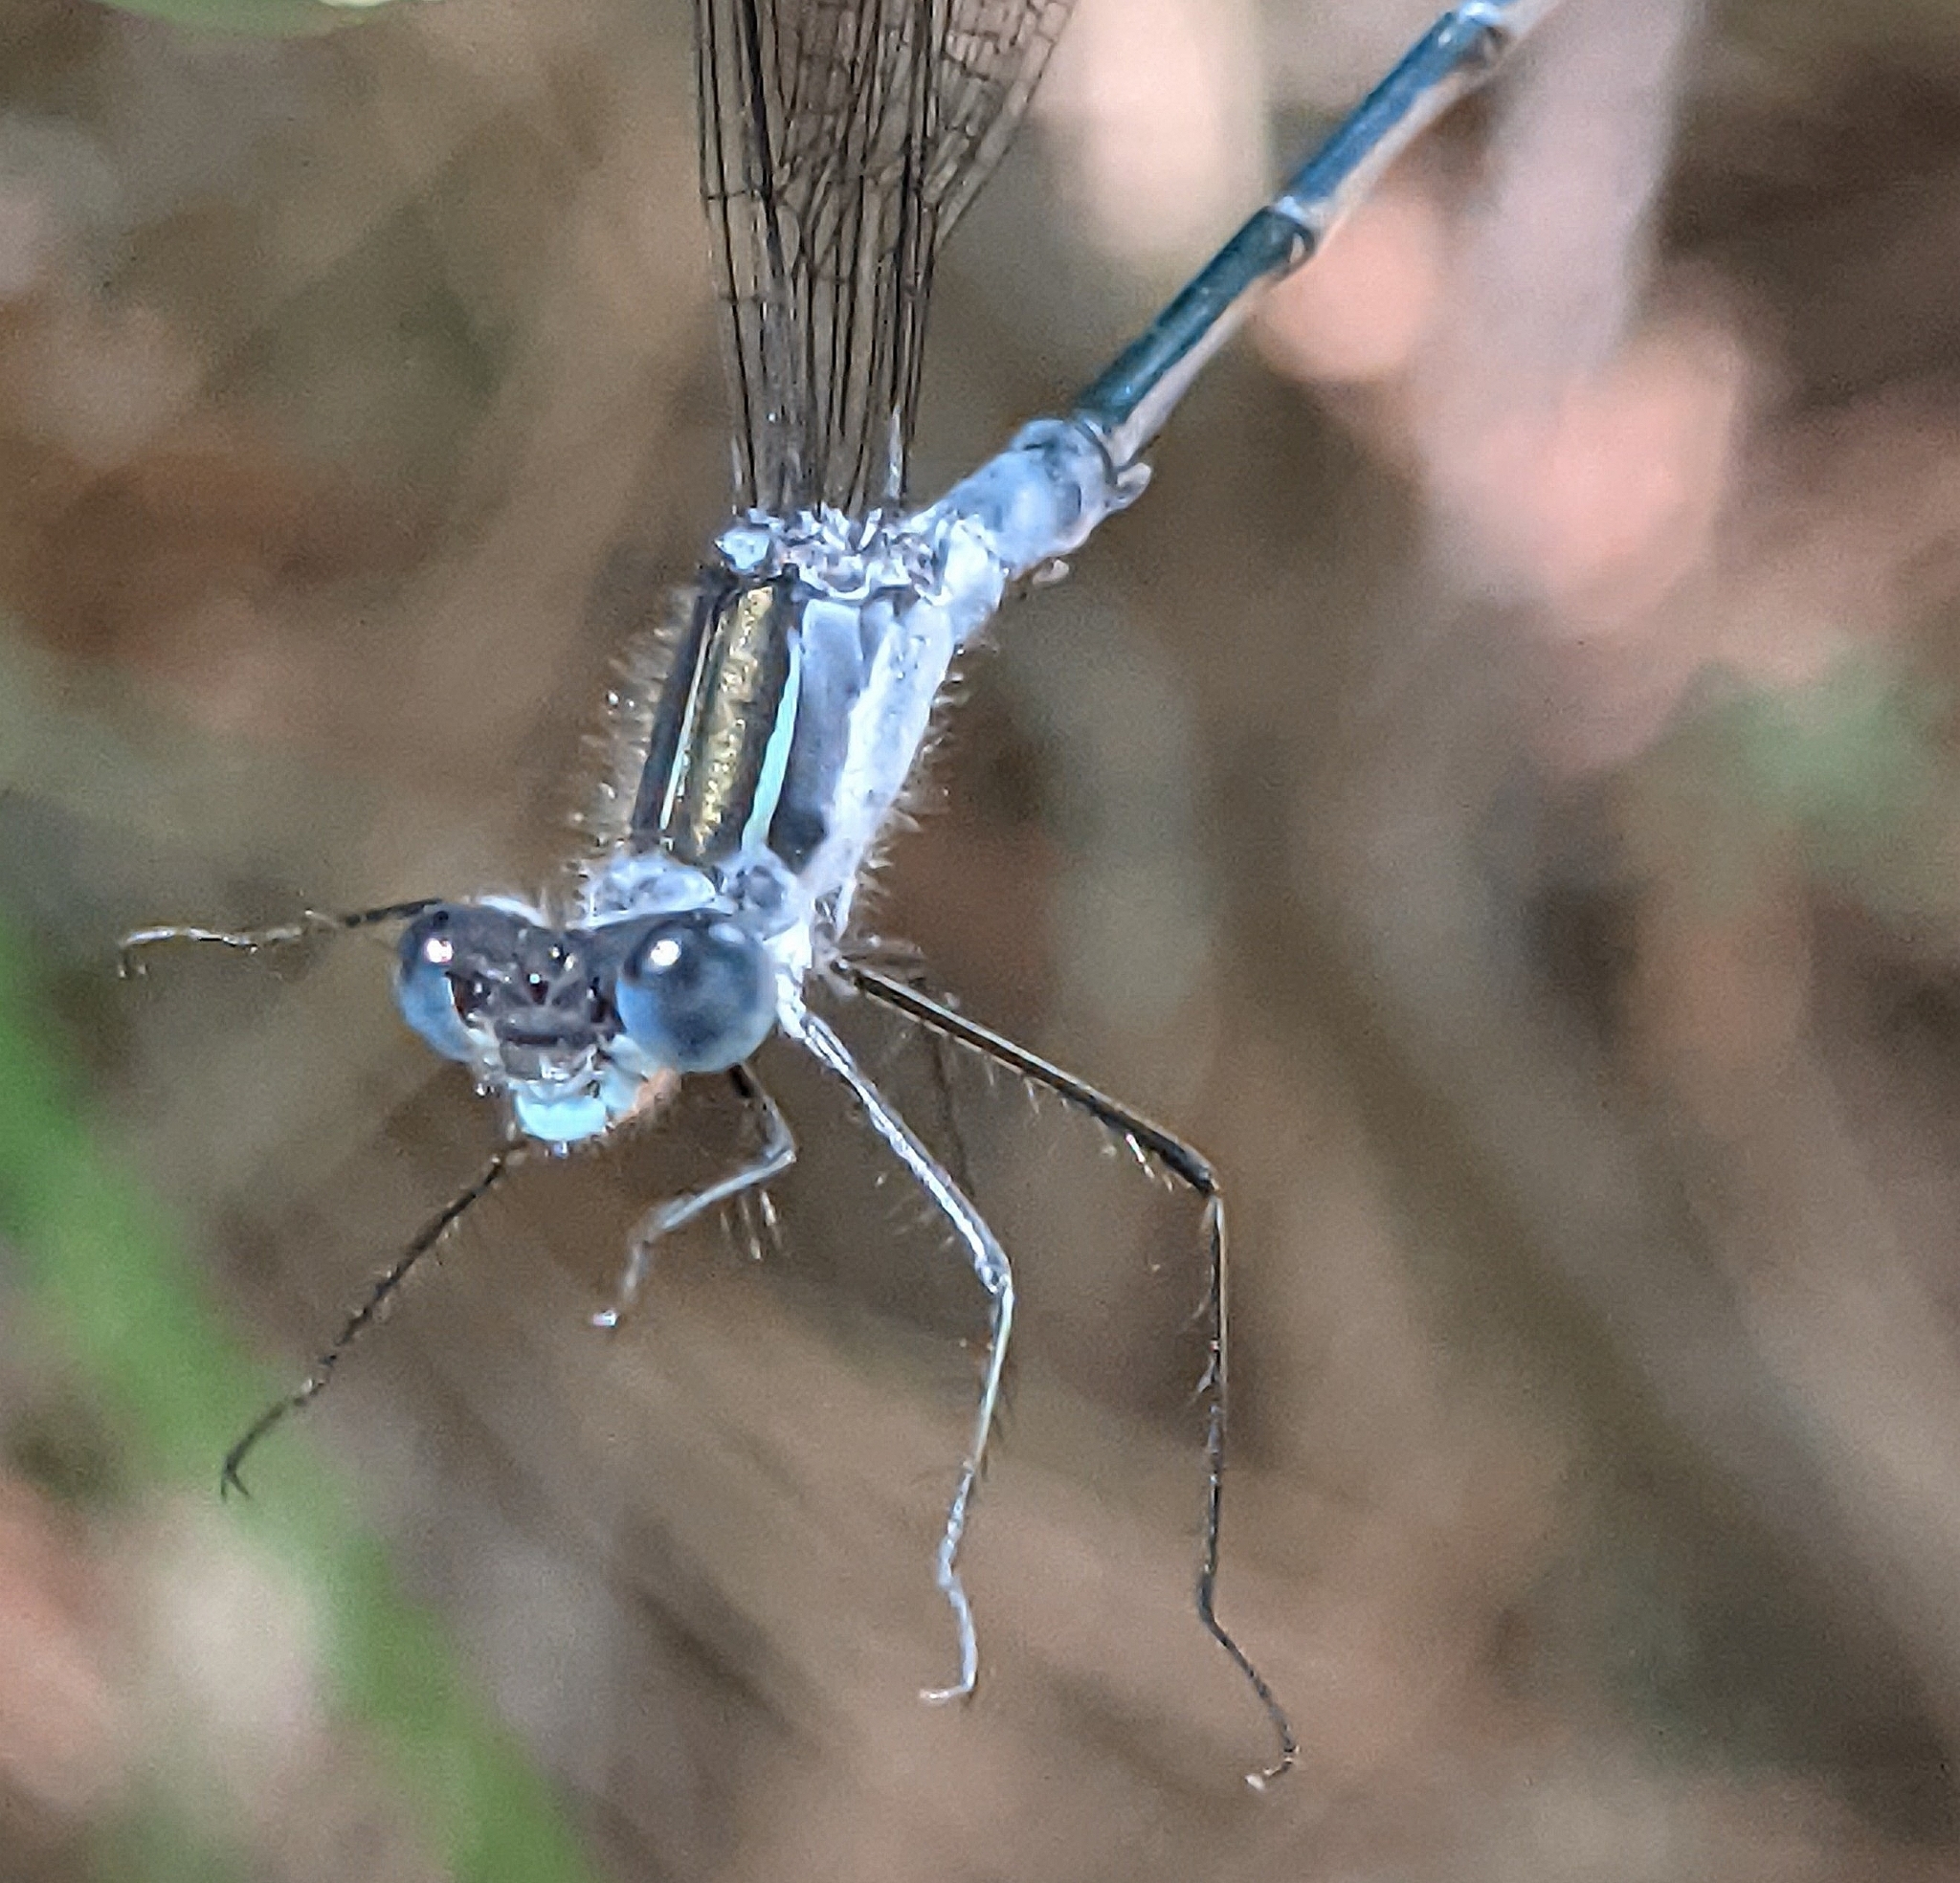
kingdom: Animalia
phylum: Arthropoda
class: Insecta
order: Odonata
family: Lestidae
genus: Lestes
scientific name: Lestes disjunctus
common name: Northern spreadwing
